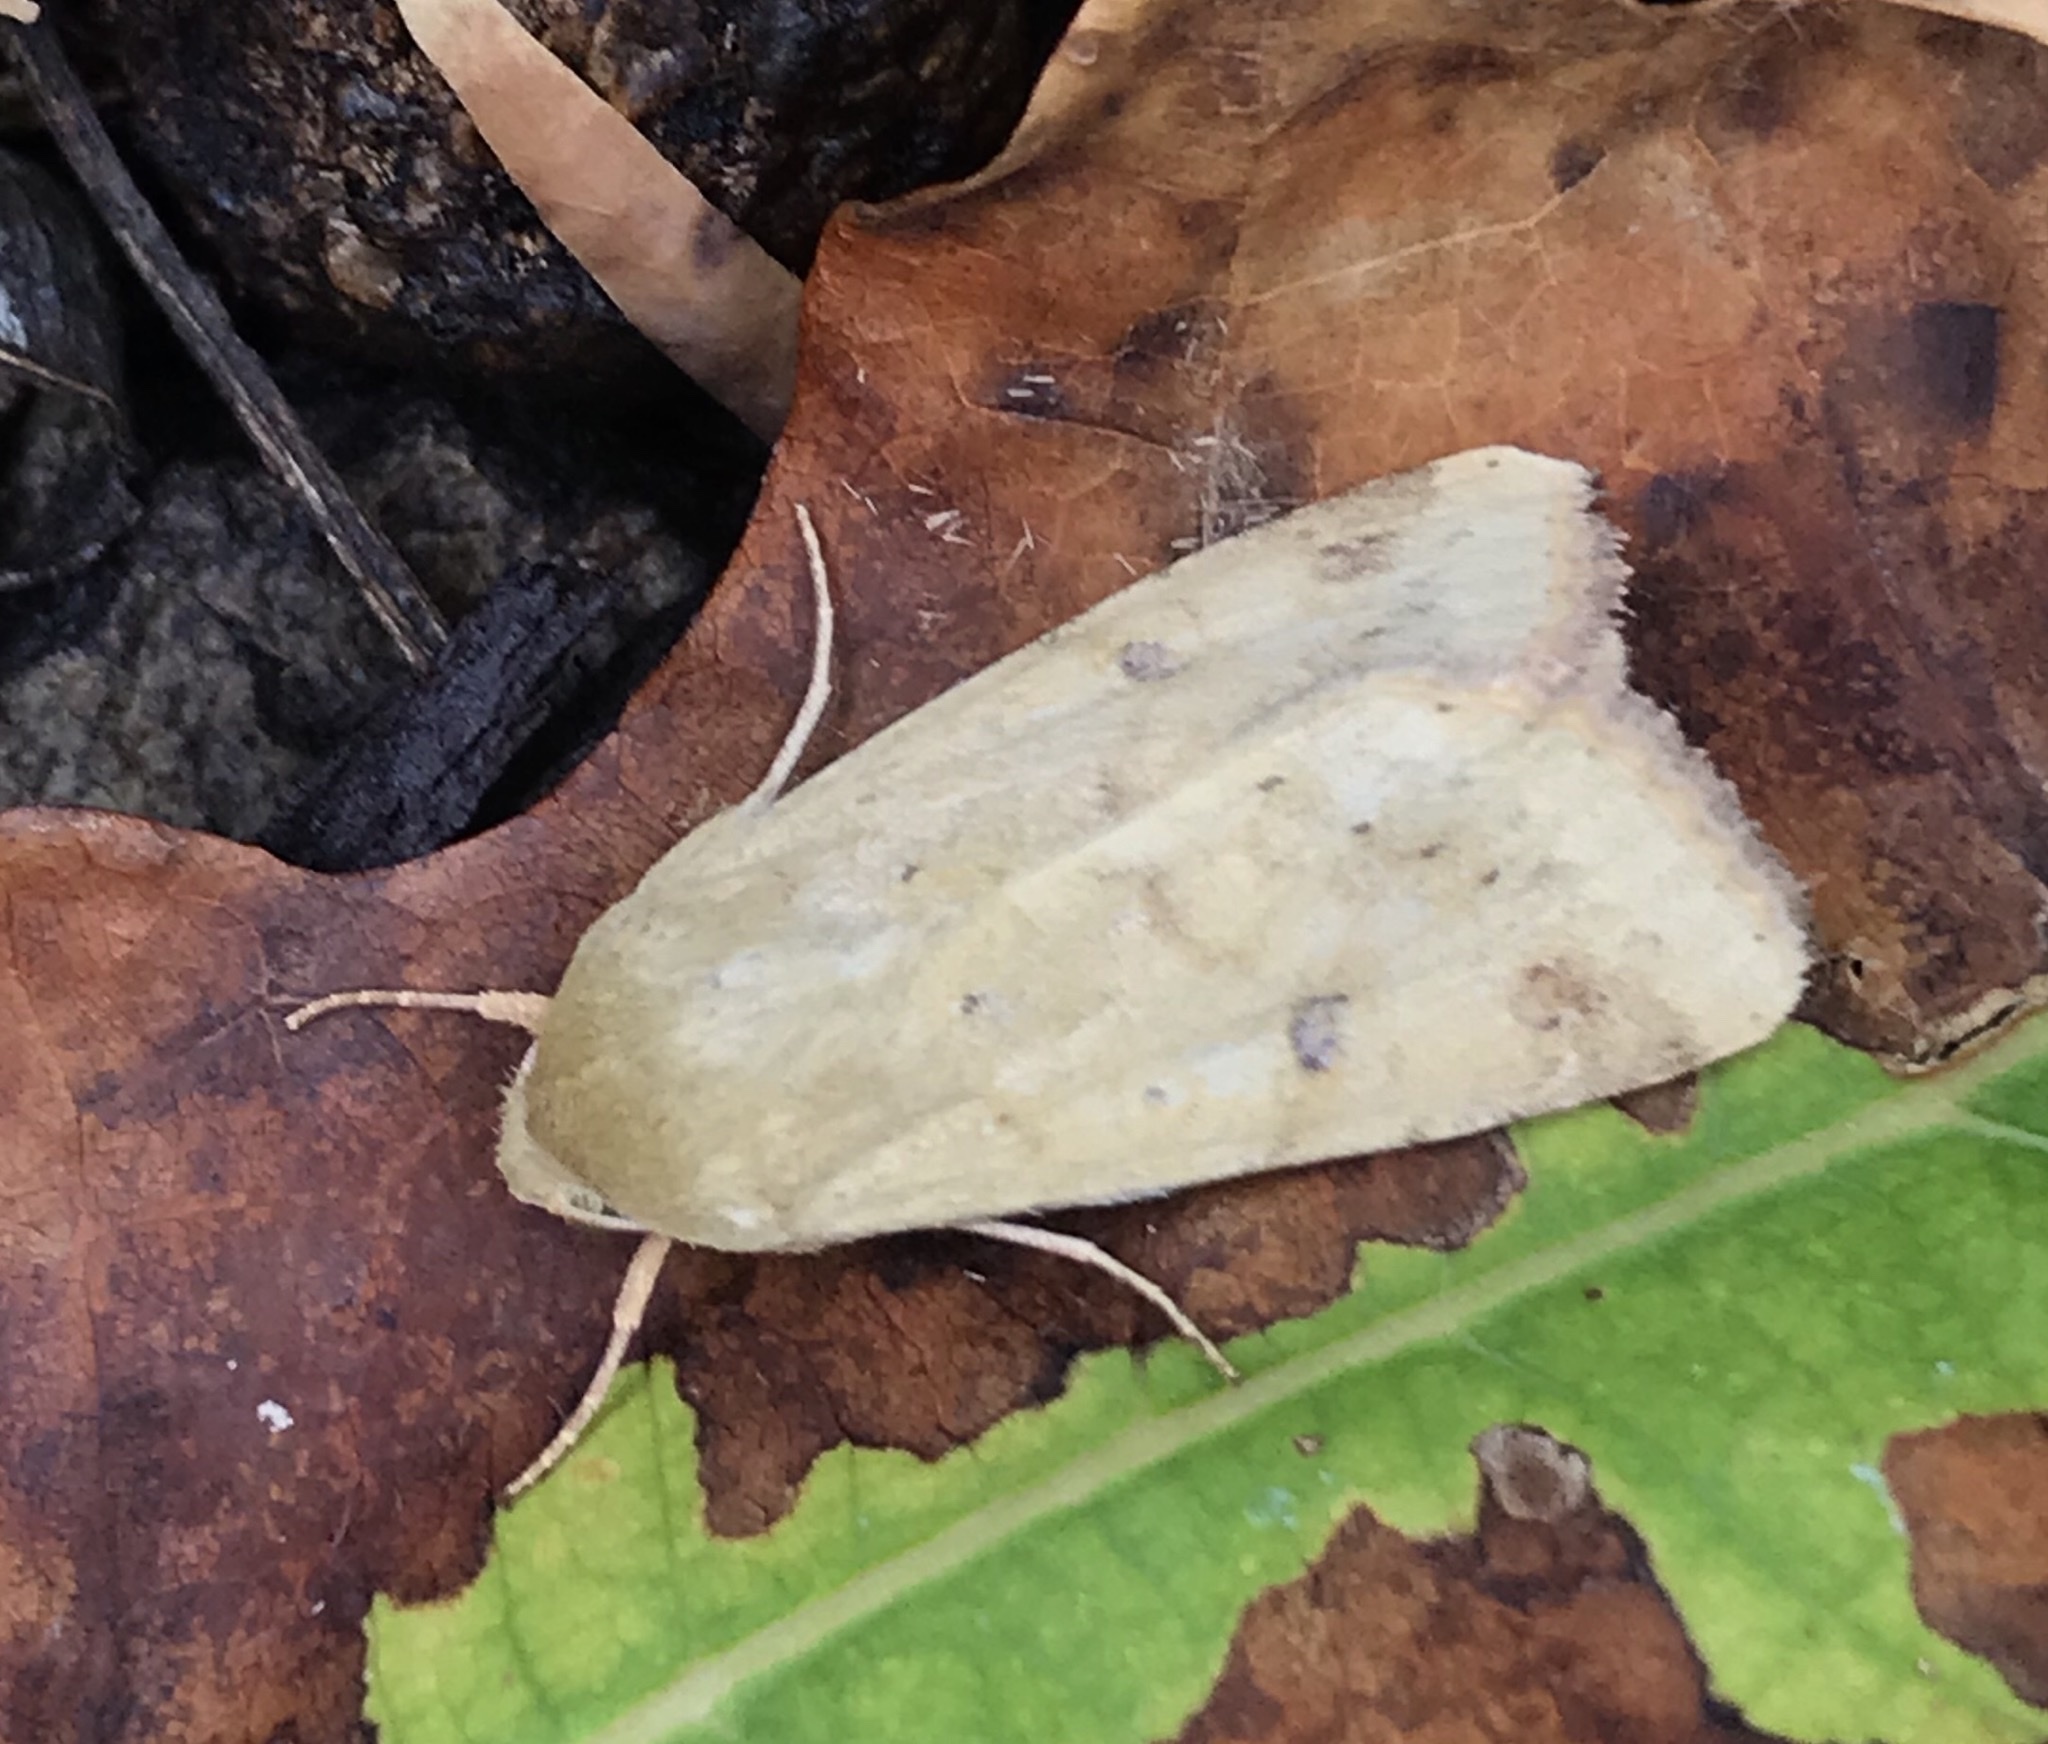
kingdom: Animalia
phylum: Arthropoda
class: Insecta
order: Lepidoptera
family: Noctuidae
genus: Helicoverpa
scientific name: Helicoverpa zea
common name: Bollworm
